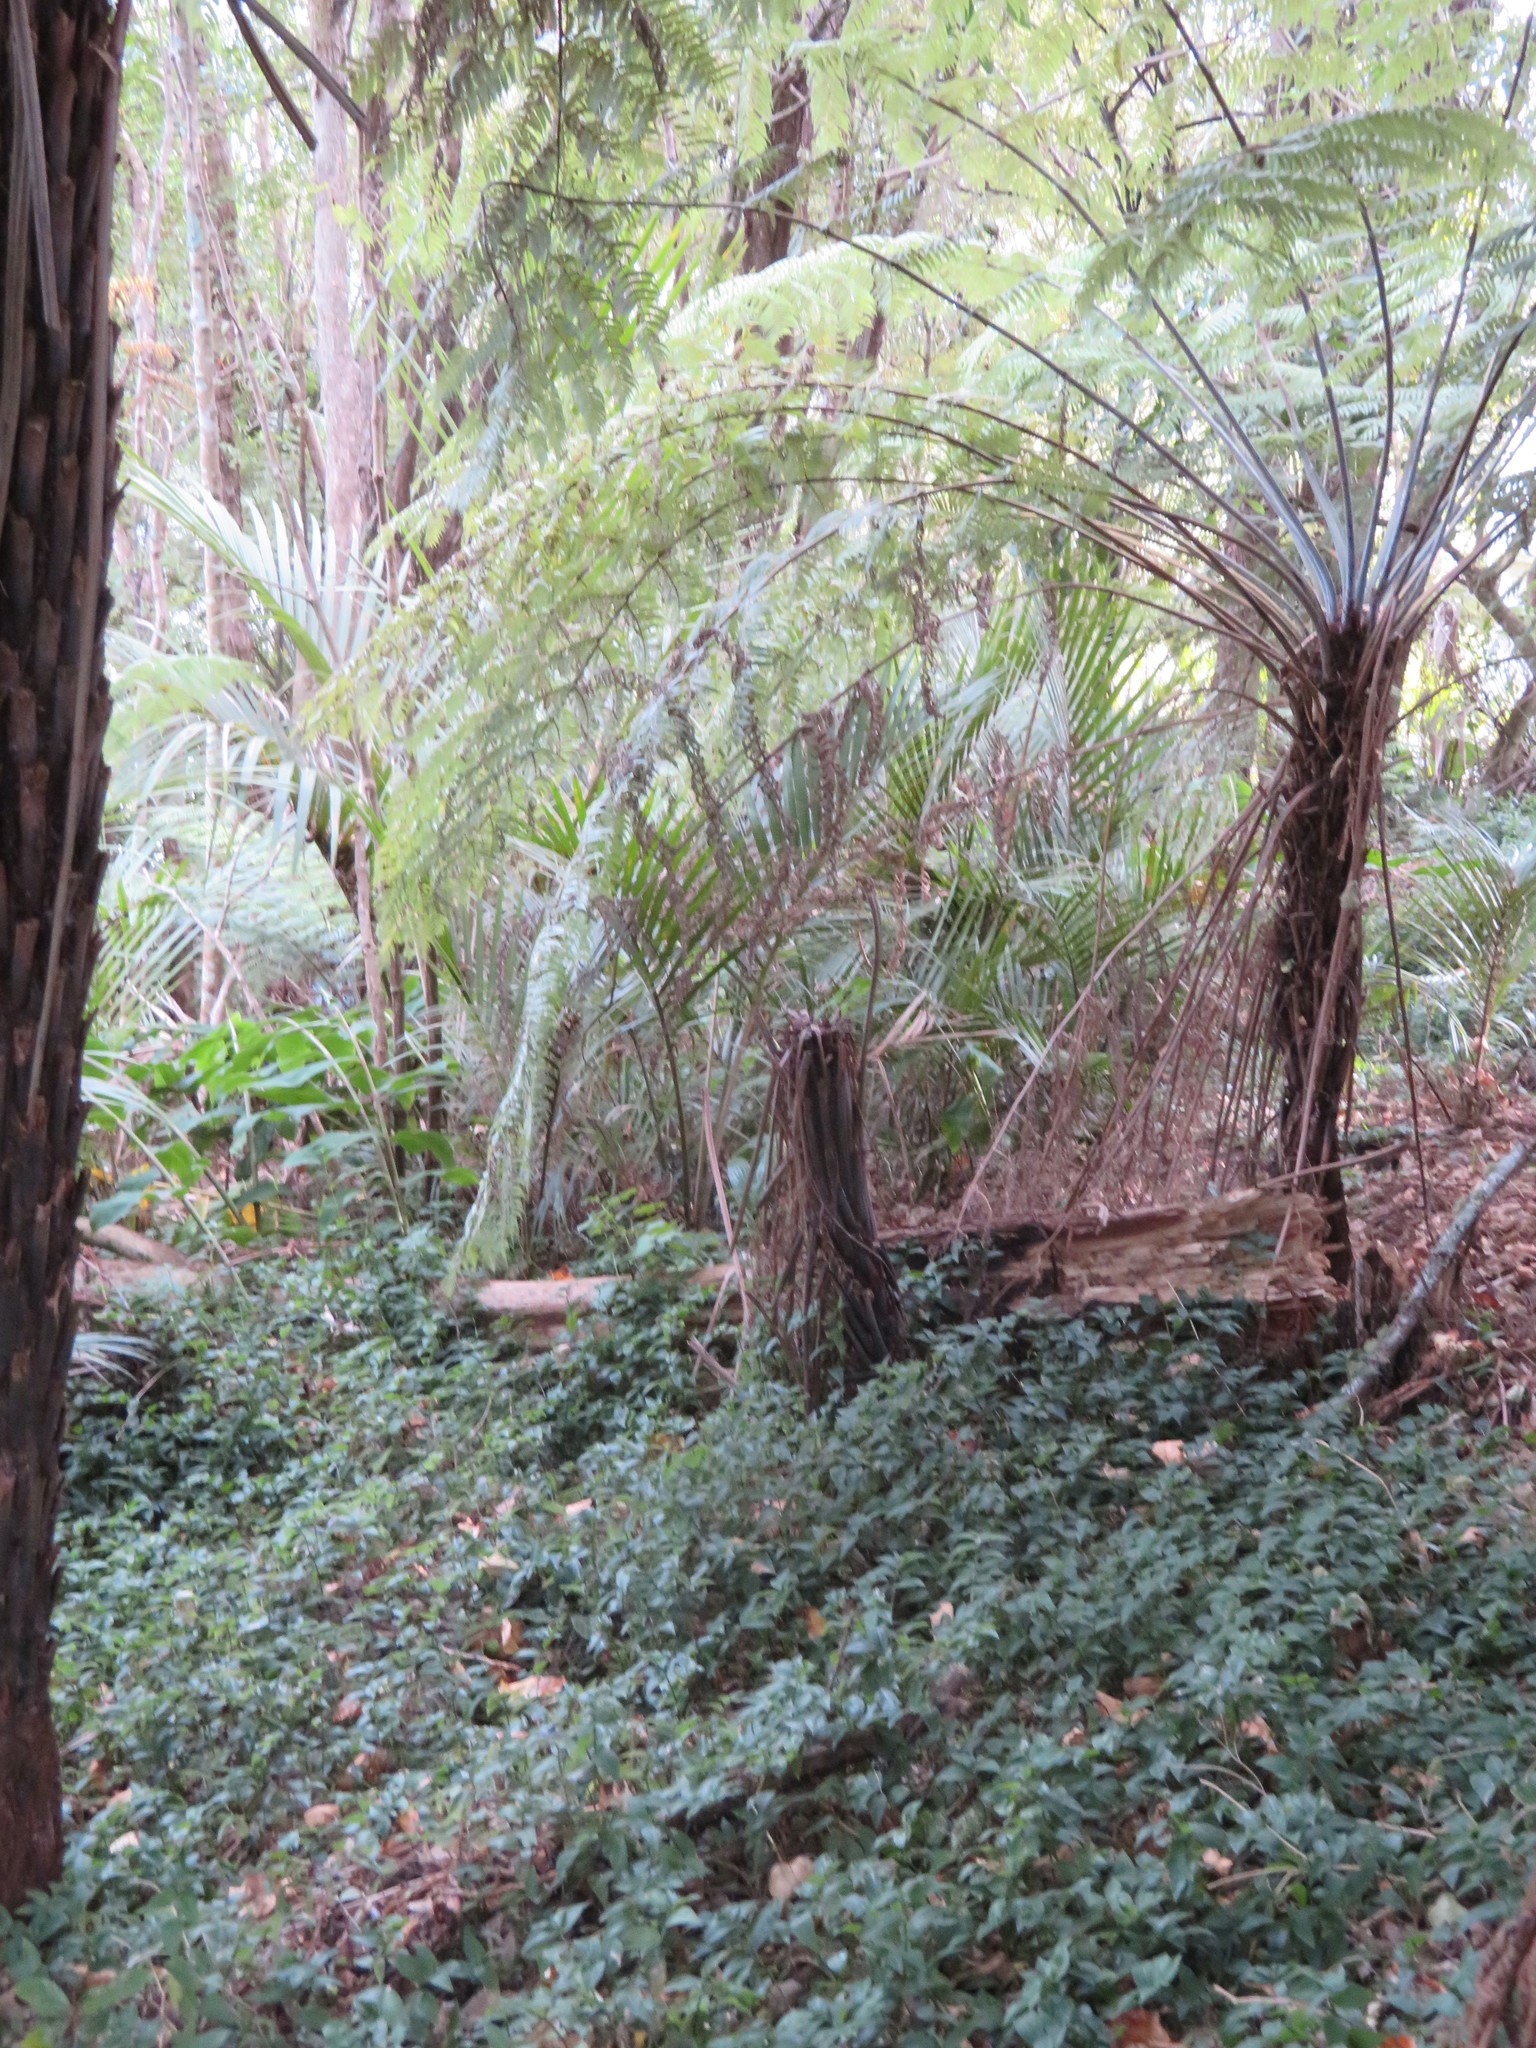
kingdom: Plantae
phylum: Tracheophyta
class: Polypodiopsida
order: Cyatheales
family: Cyatheaceae
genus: Alsophila
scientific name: Alsophila dealbata
